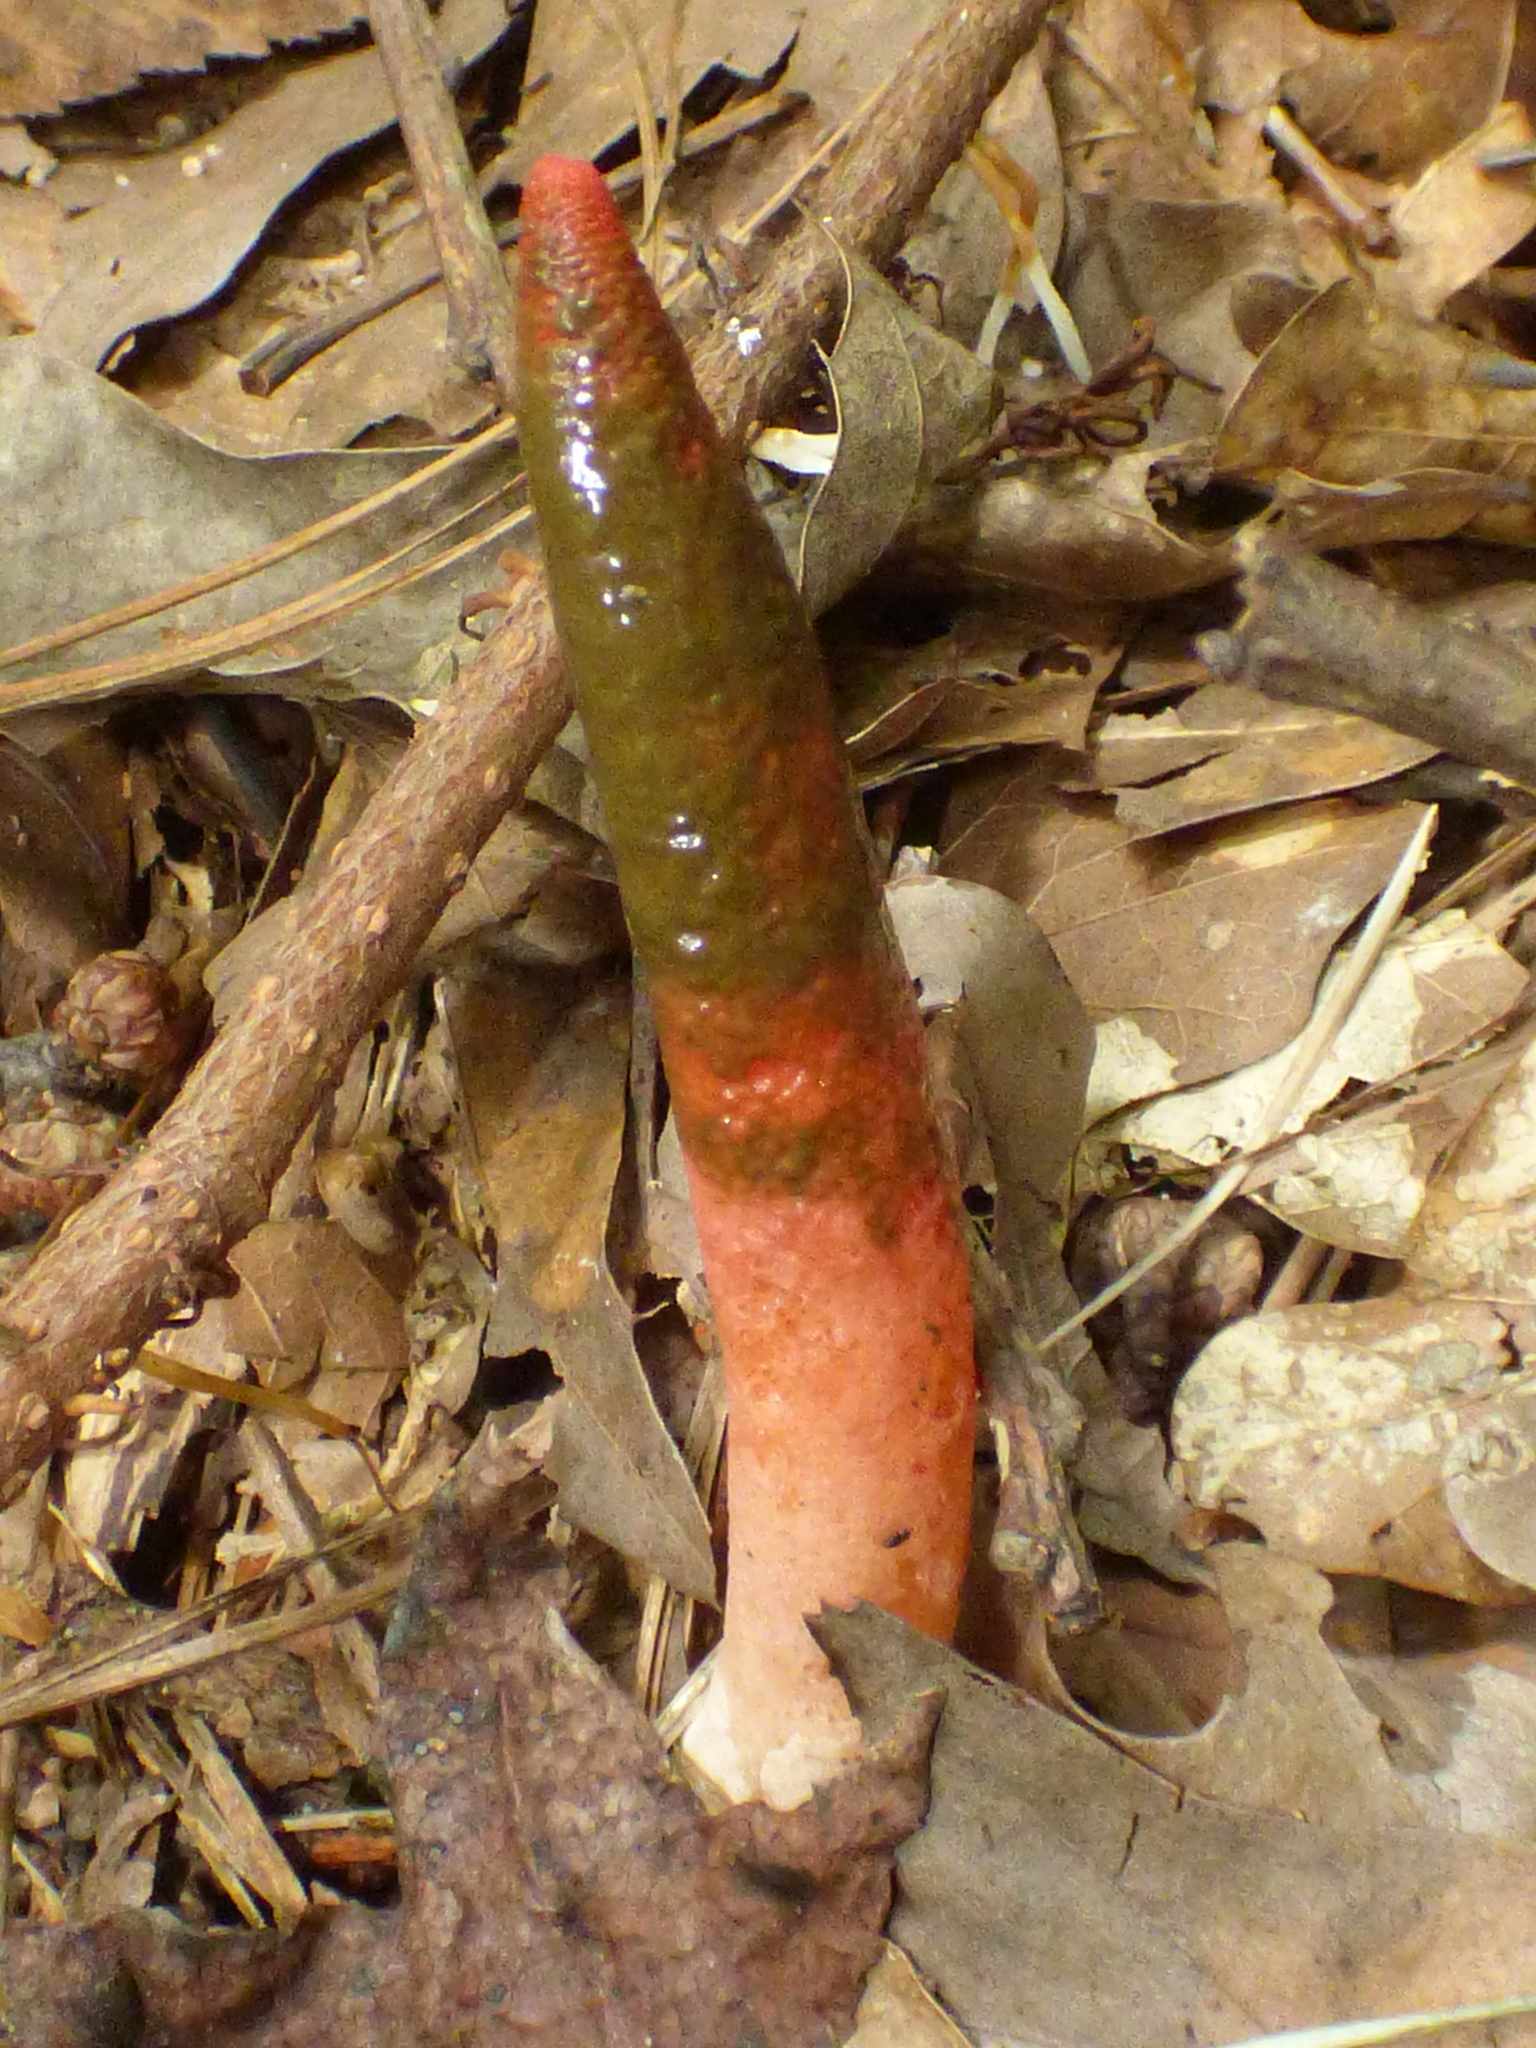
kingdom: Fungi
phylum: Basidiomycota
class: Agaricomycetes
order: Phallales
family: Phallaceae
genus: Mutinus
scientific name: Mutinus elegans
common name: Devil's dipstick
